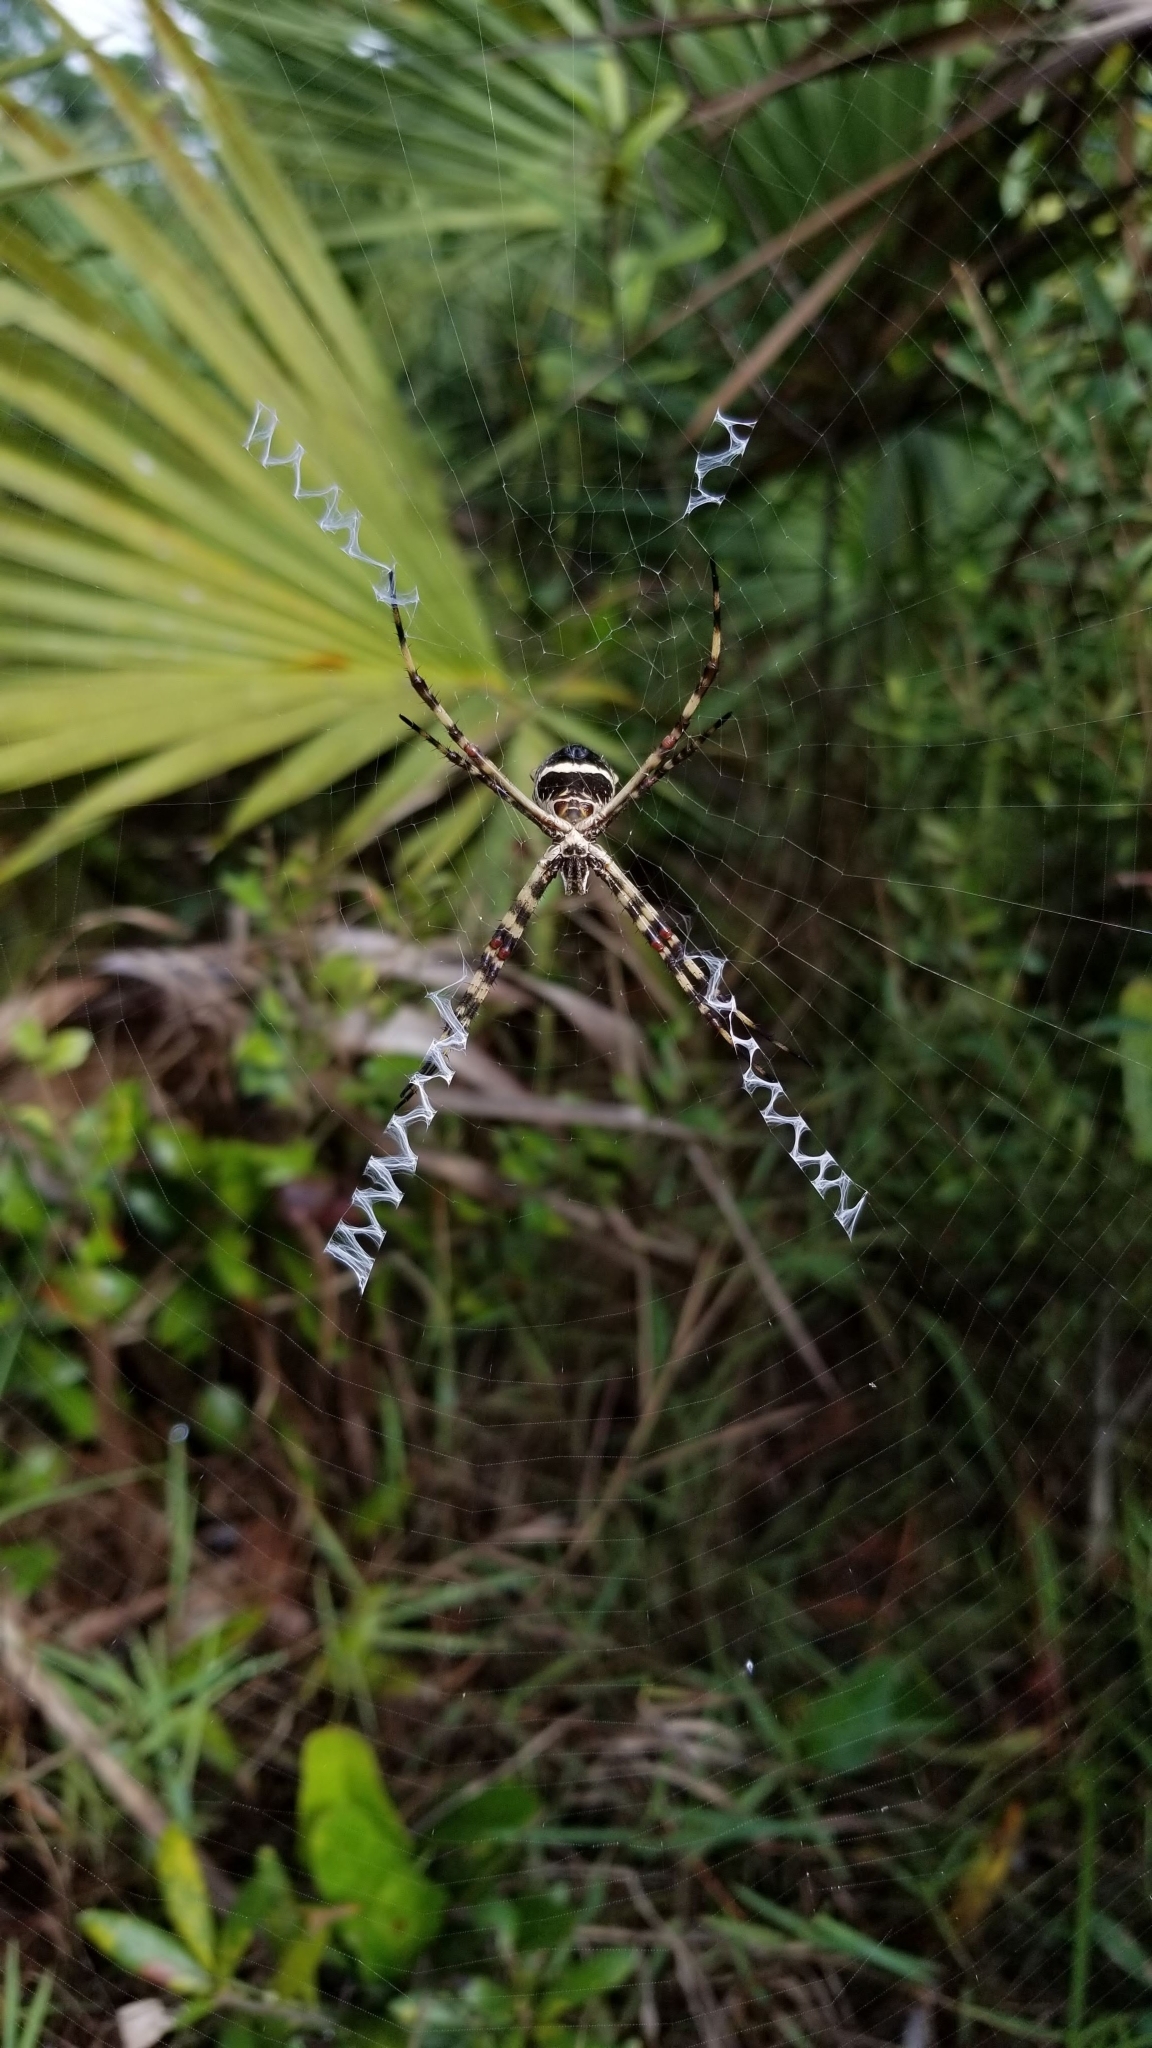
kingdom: Animalia
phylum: Arthropoda
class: Arachnida
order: Araneae
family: Araneidae
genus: Argiope
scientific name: Argiope argentata
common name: Orb weavers
